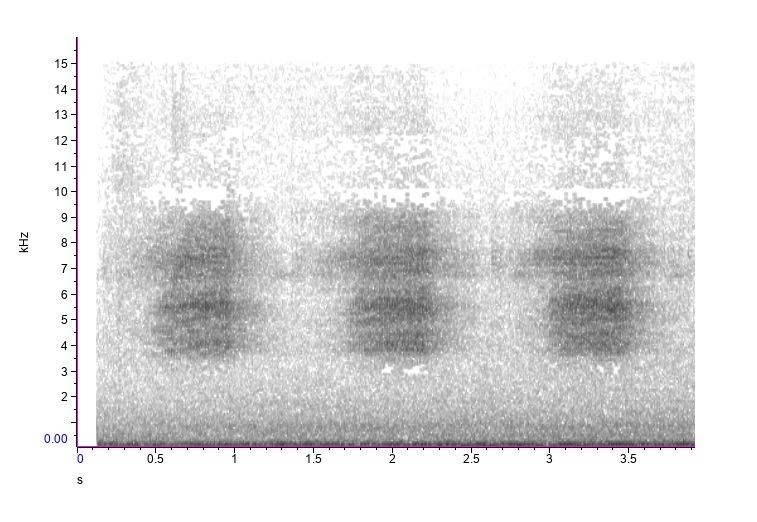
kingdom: Animalia
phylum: Arthropoda
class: Insecta
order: Hemiptera
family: Cicadidae
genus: Neotibicen
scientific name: Neotibicen robinsonianus
